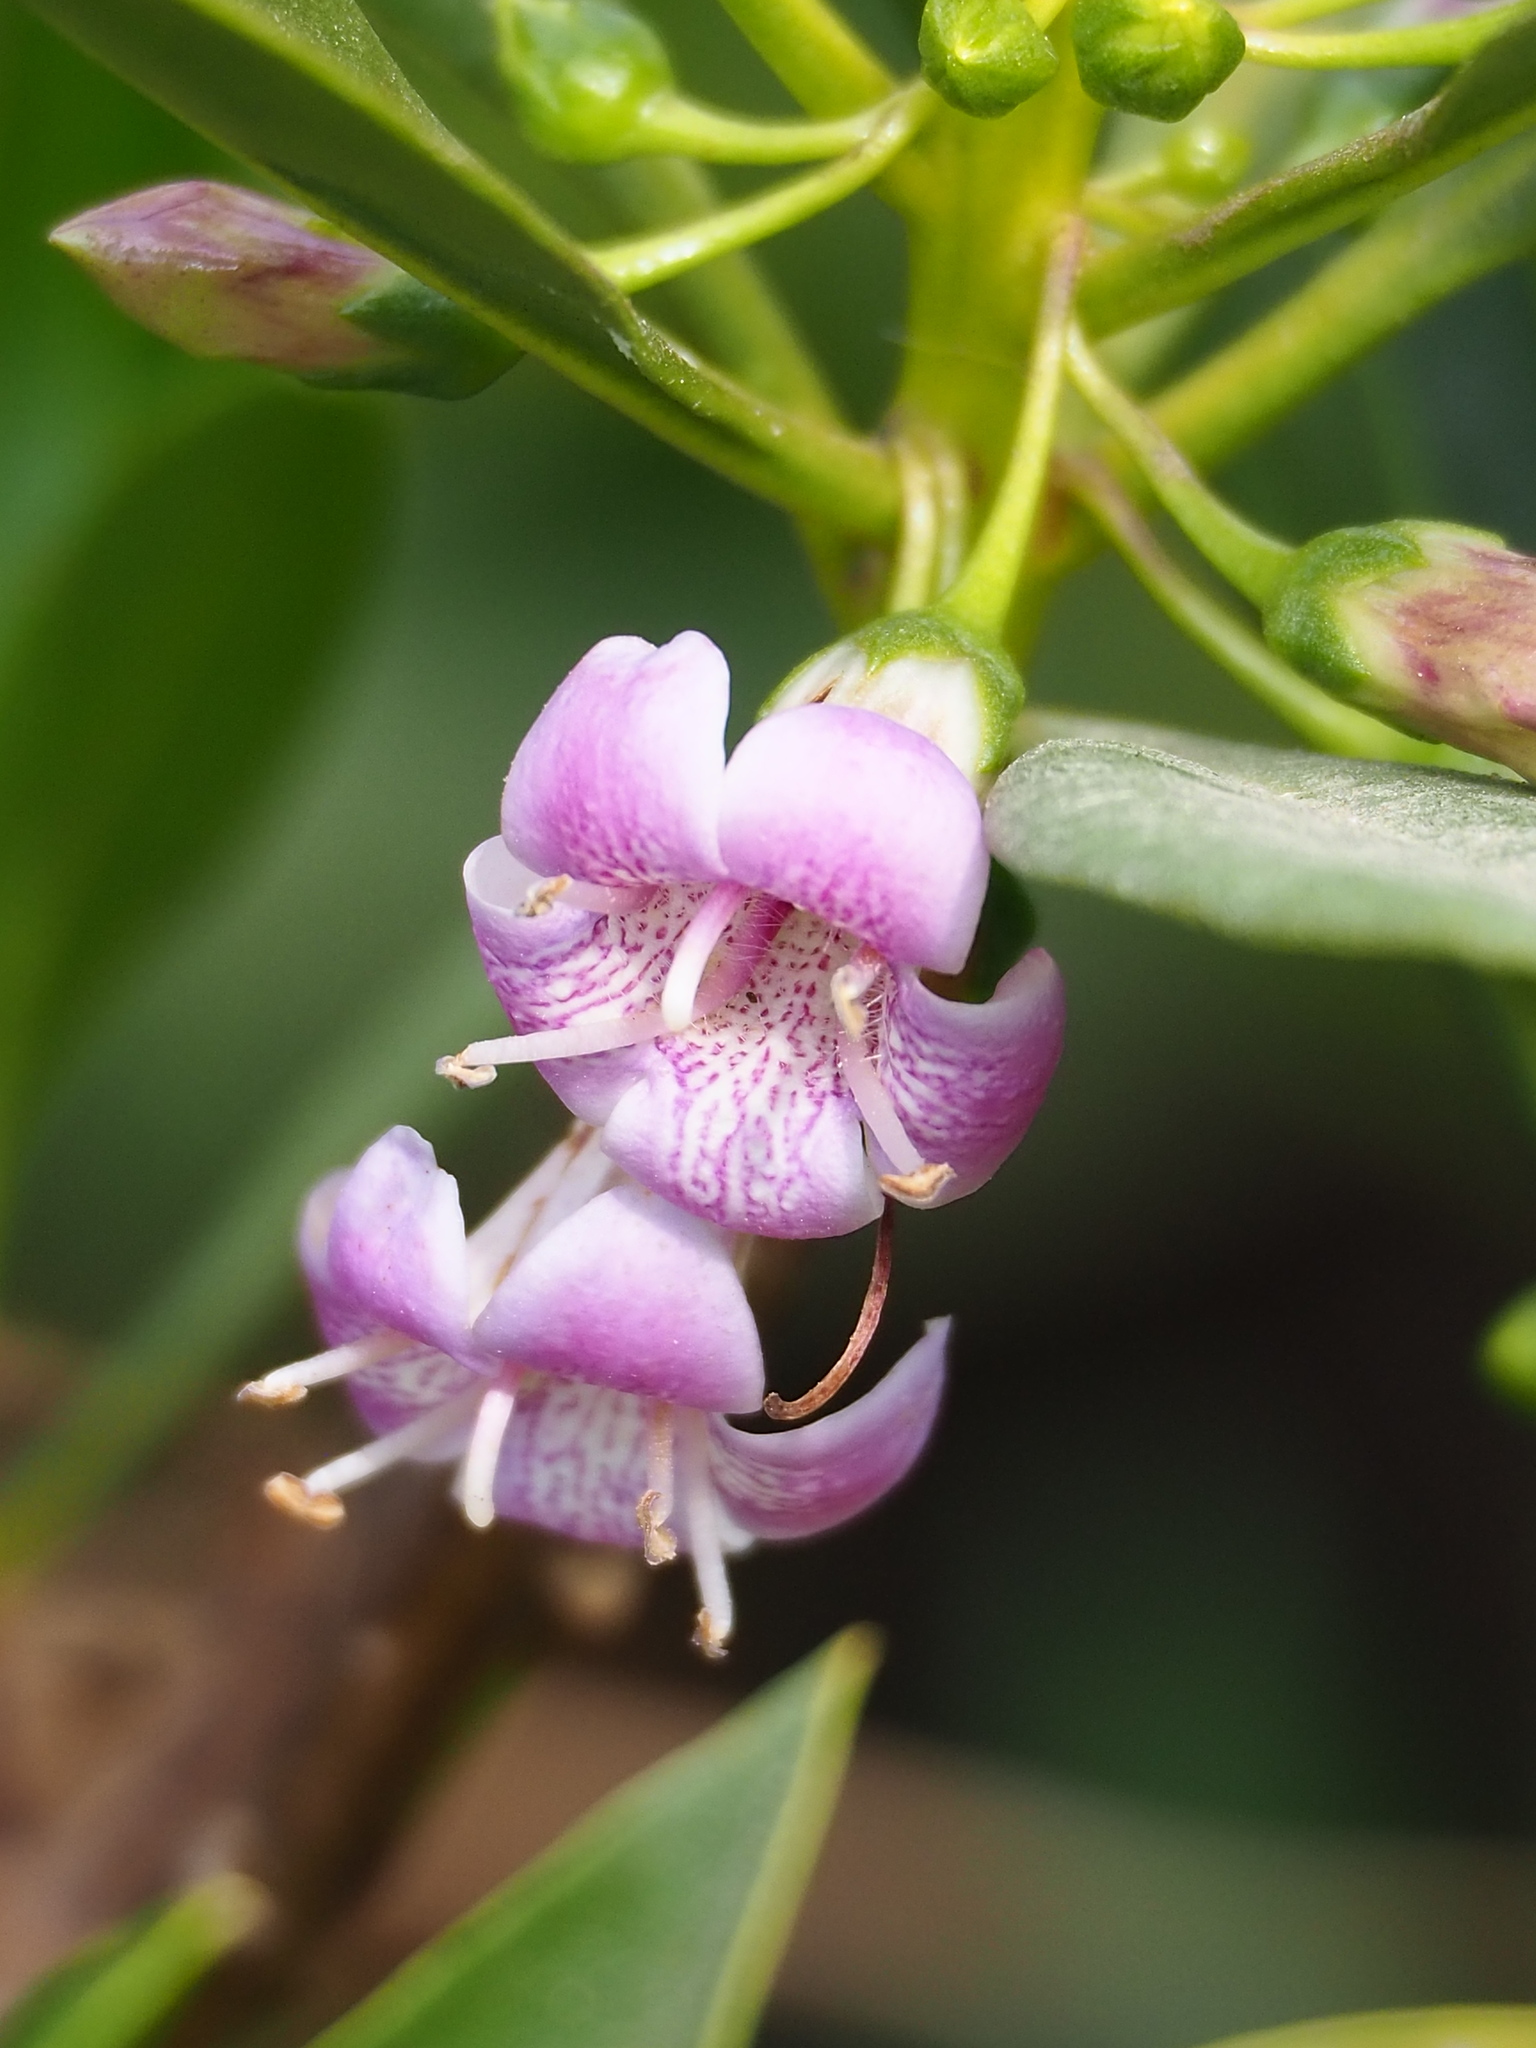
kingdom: Plantae
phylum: Tracheophyta
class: Magnoliopsida
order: Lamiales
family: Scrophulariaceae
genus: Myoporum
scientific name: Myoporum bontioides
